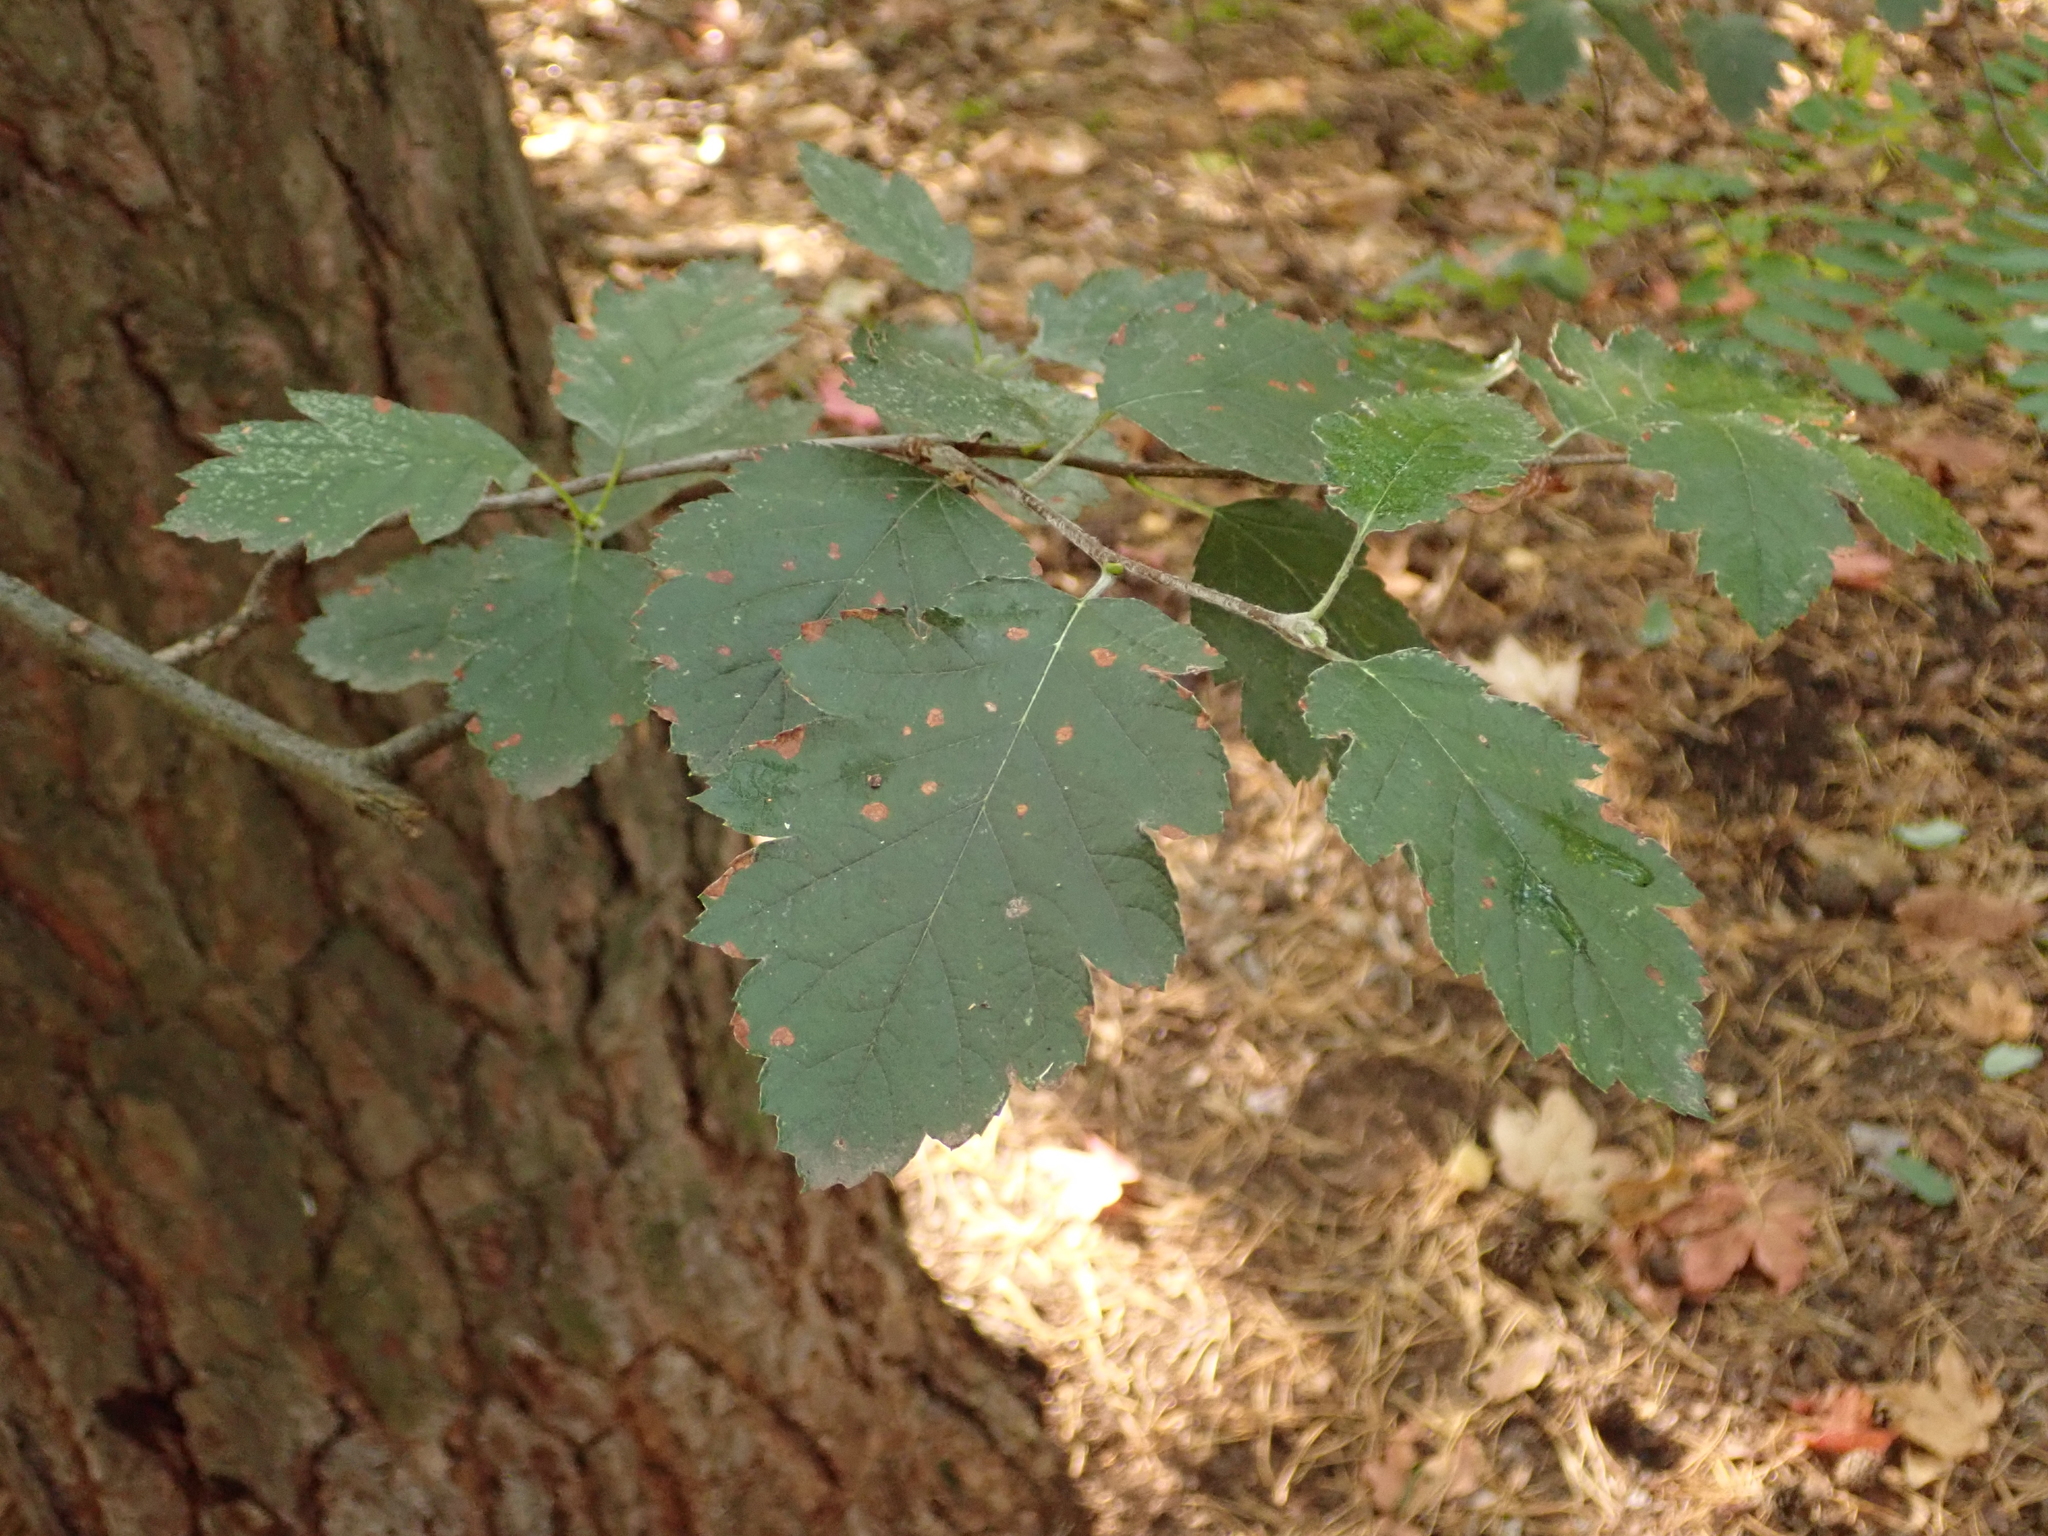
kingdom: Plantae
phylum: Tracheophyta
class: Magnoliopsida
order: Rosales
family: Rosaceae
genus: Scandosorbus
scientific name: Scandosorbus intermedia
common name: Swedish whitebeam
